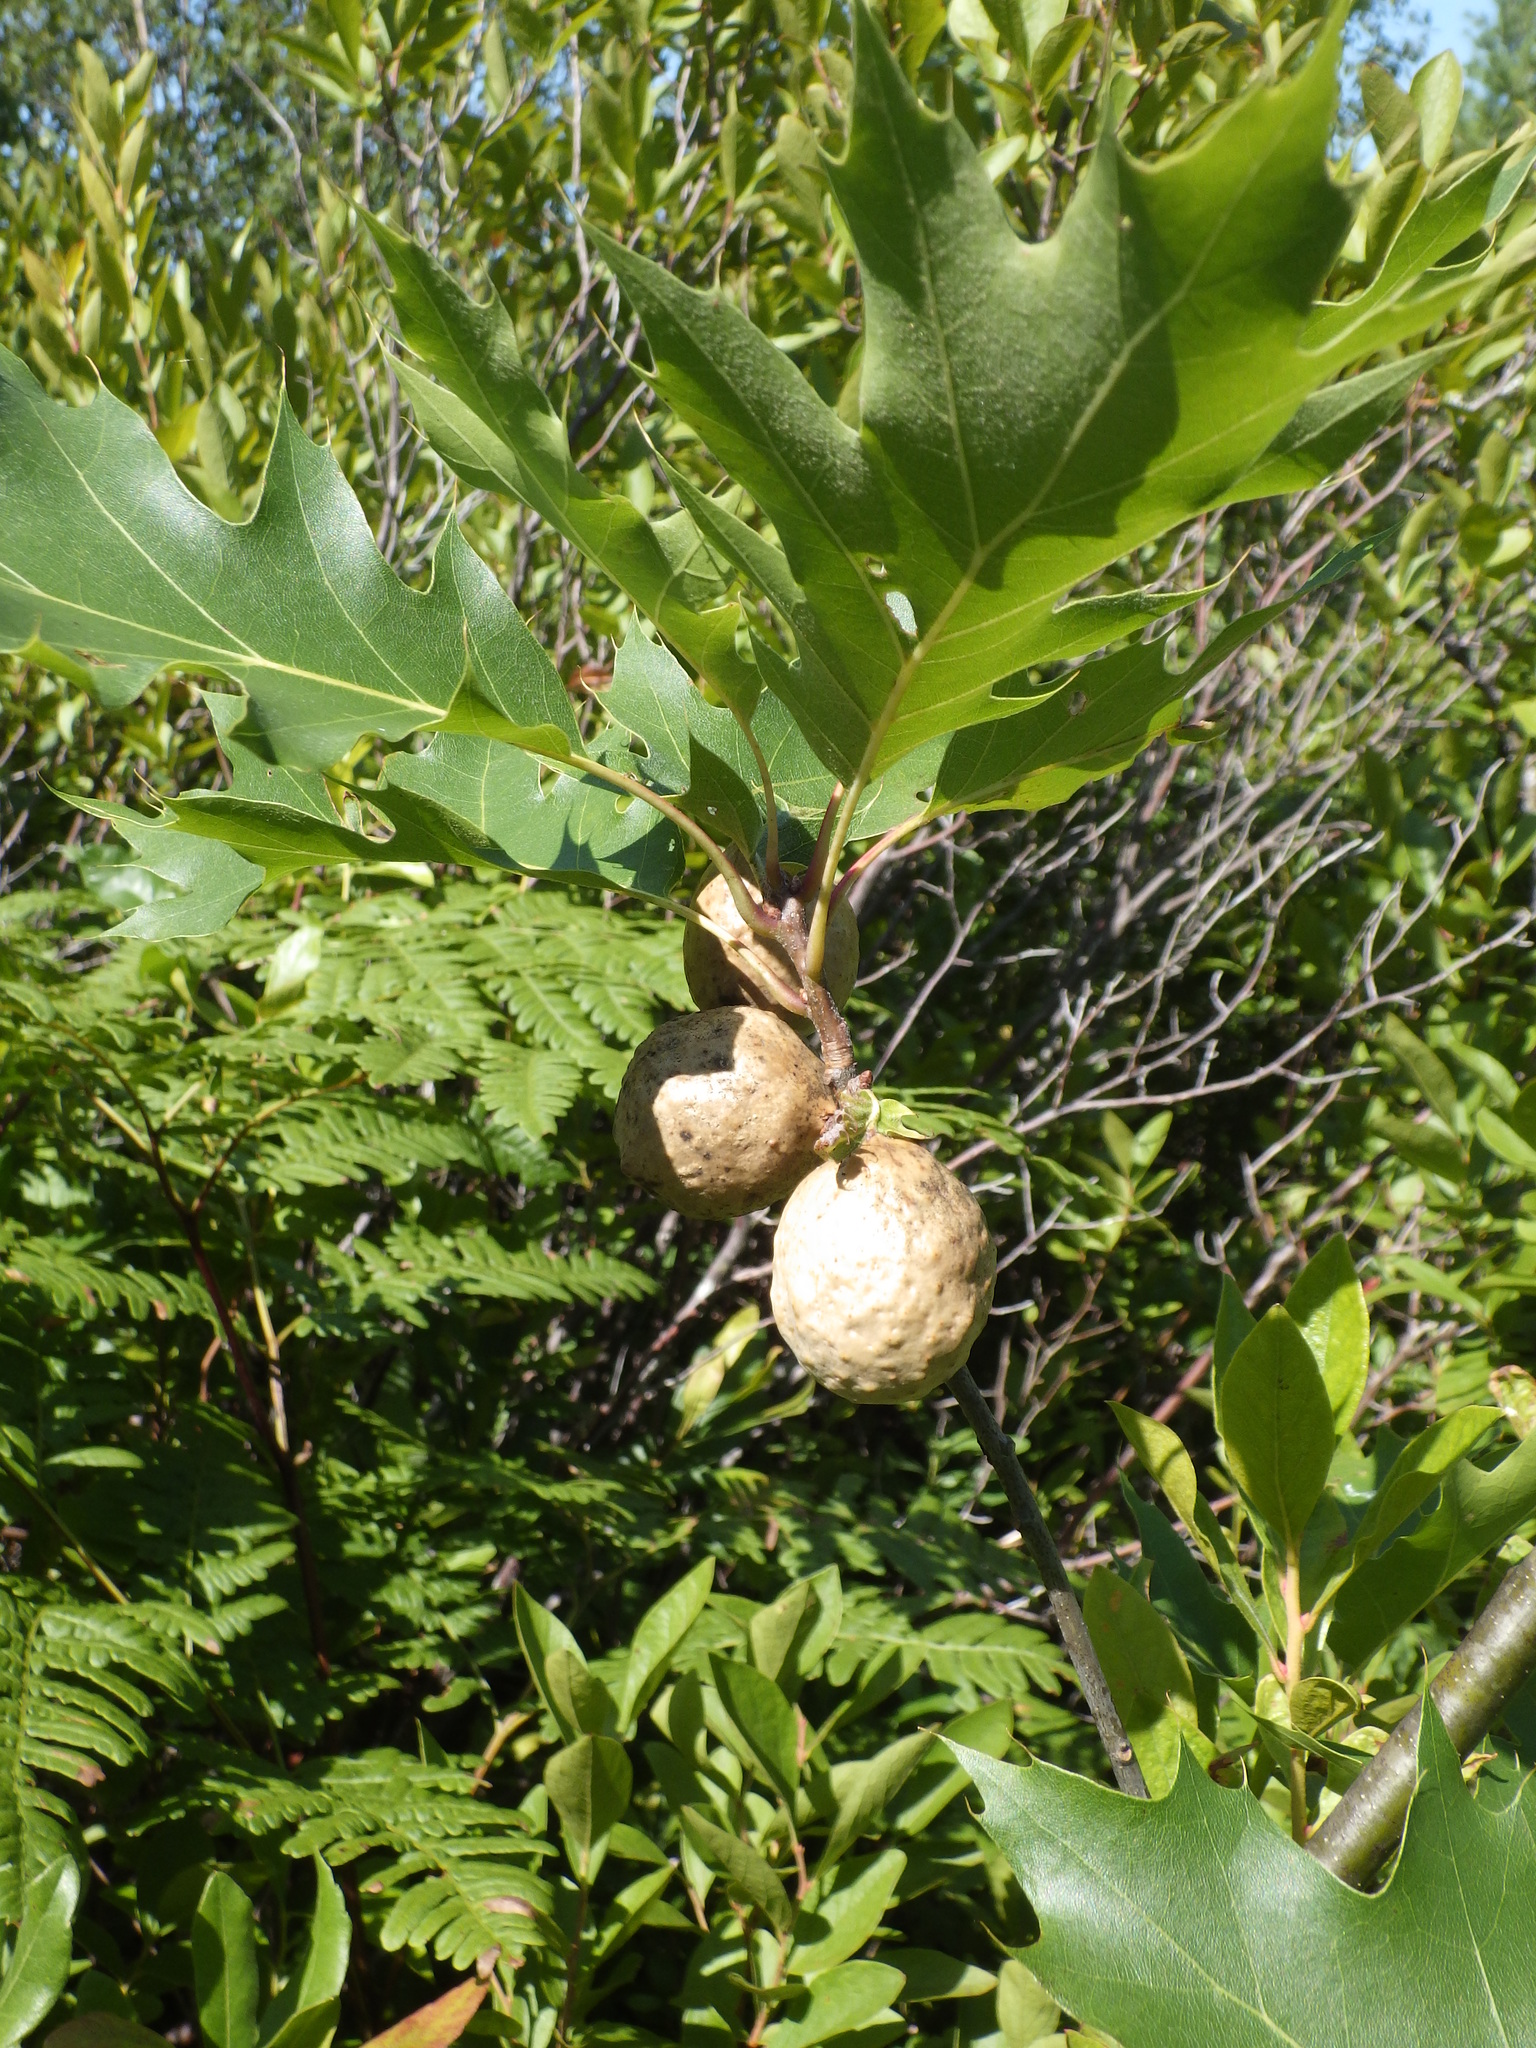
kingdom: Animalia
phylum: Arthropoda
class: Insecta
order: Hymenoptera
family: Cynipidae
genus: Amphibolips
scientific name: Amphibolips
